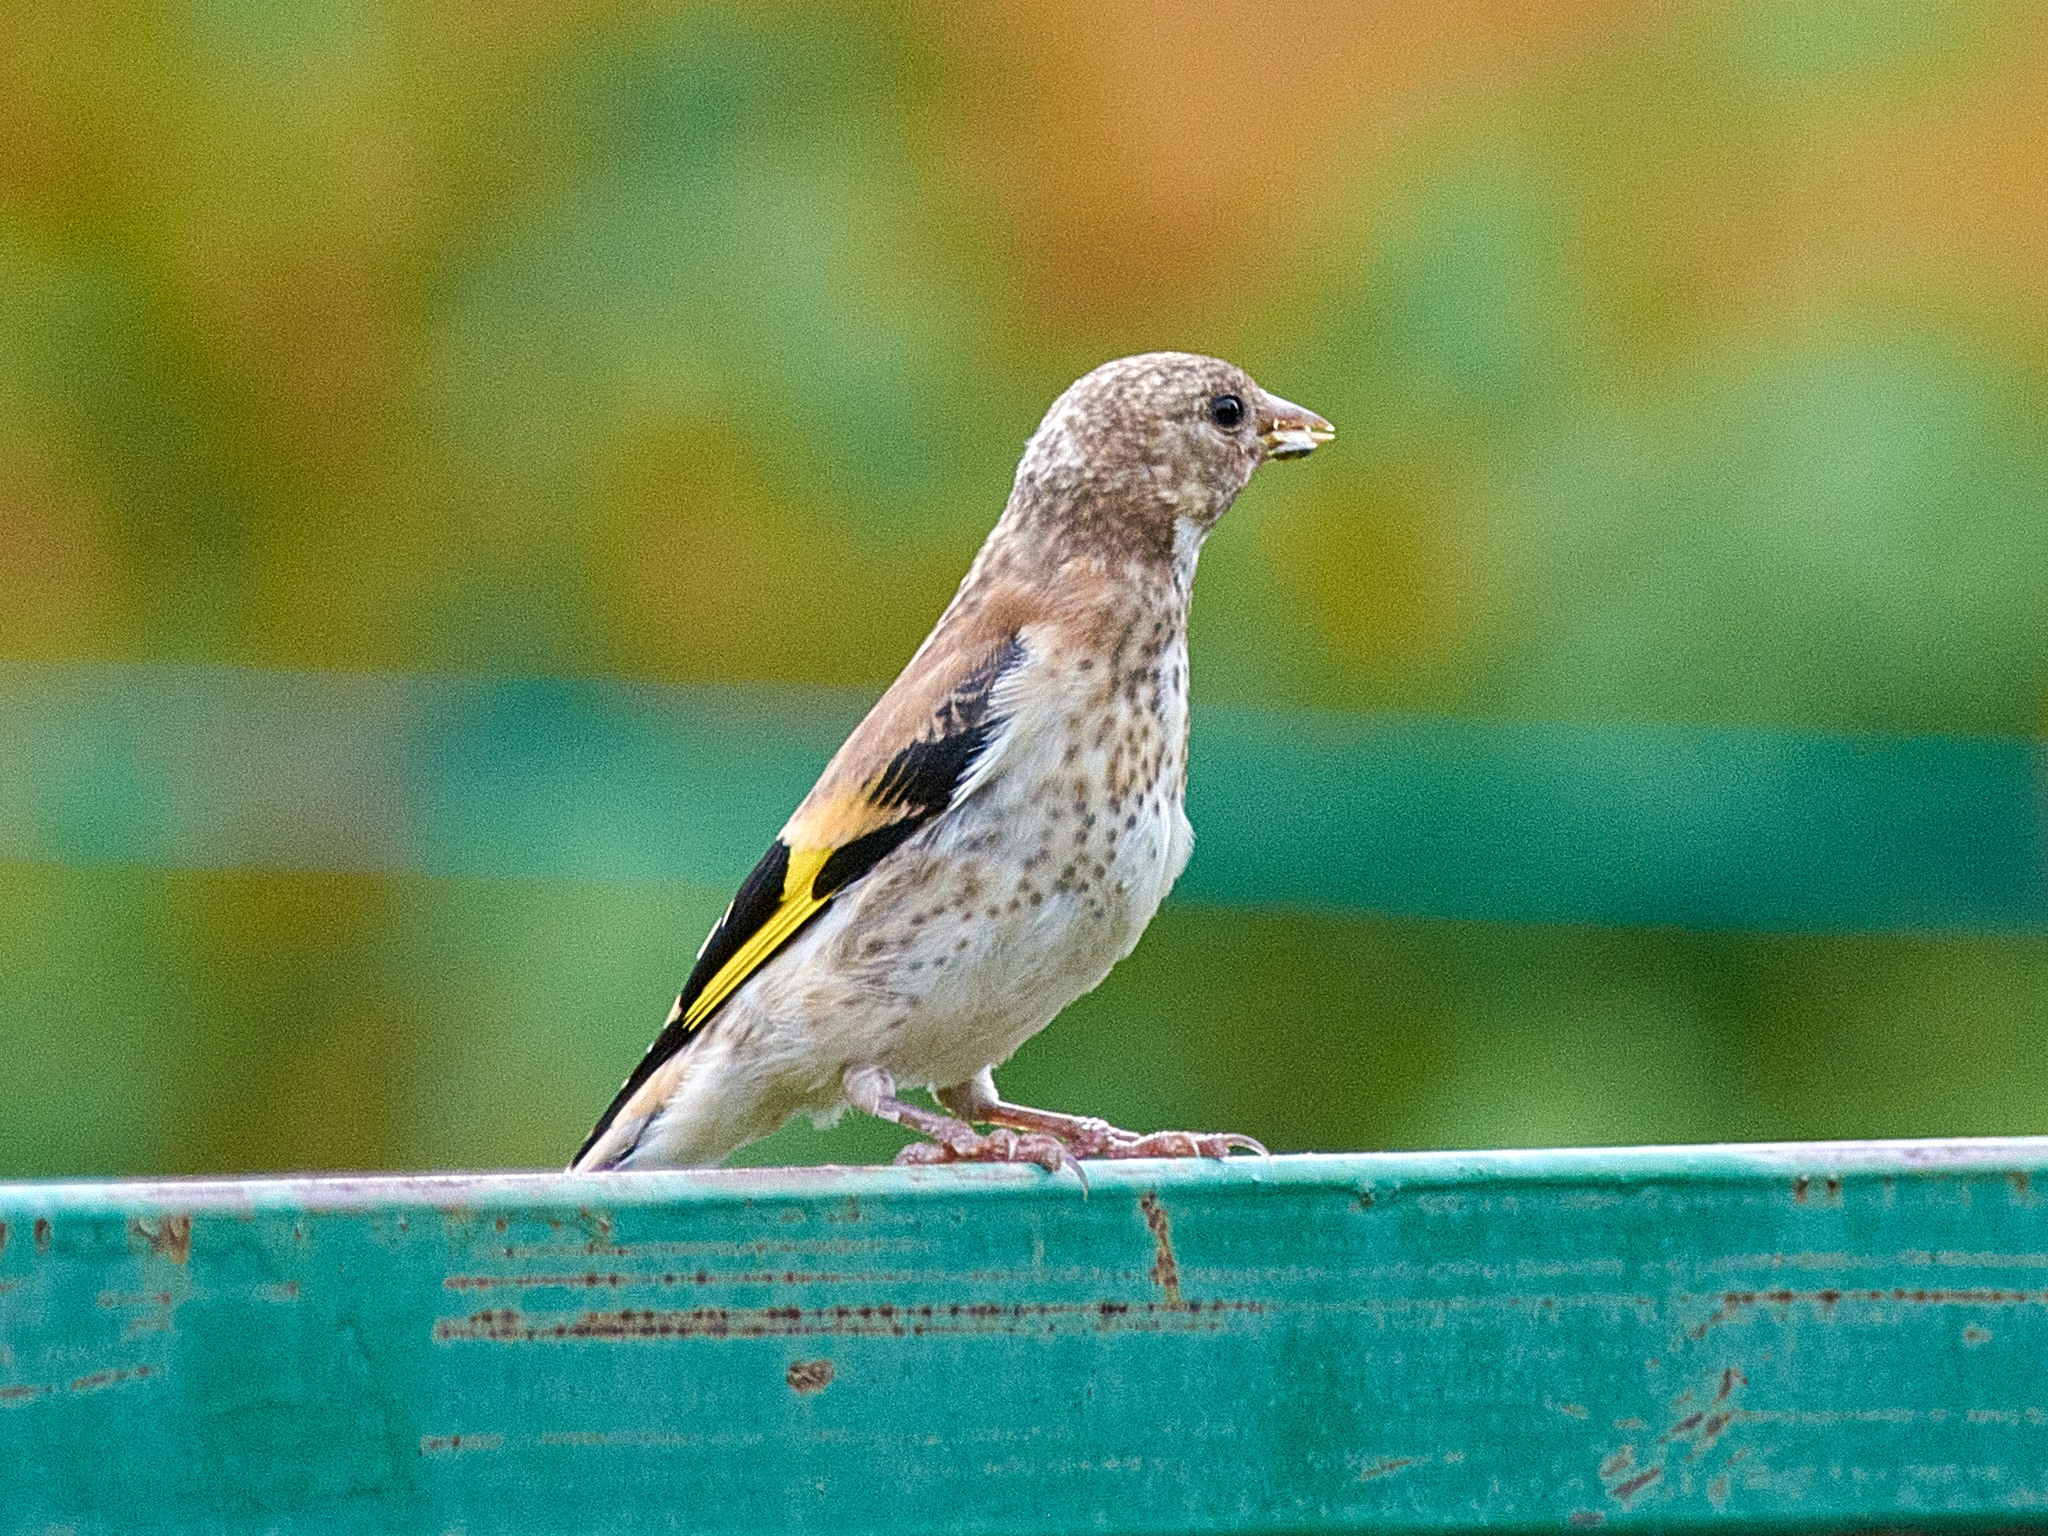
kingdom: Animalia
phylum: Chordata
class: Aves
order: Passeriformes
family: Fringillidae
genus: Carduelis
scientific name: Carduelis carduelis
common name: European goldfinch
